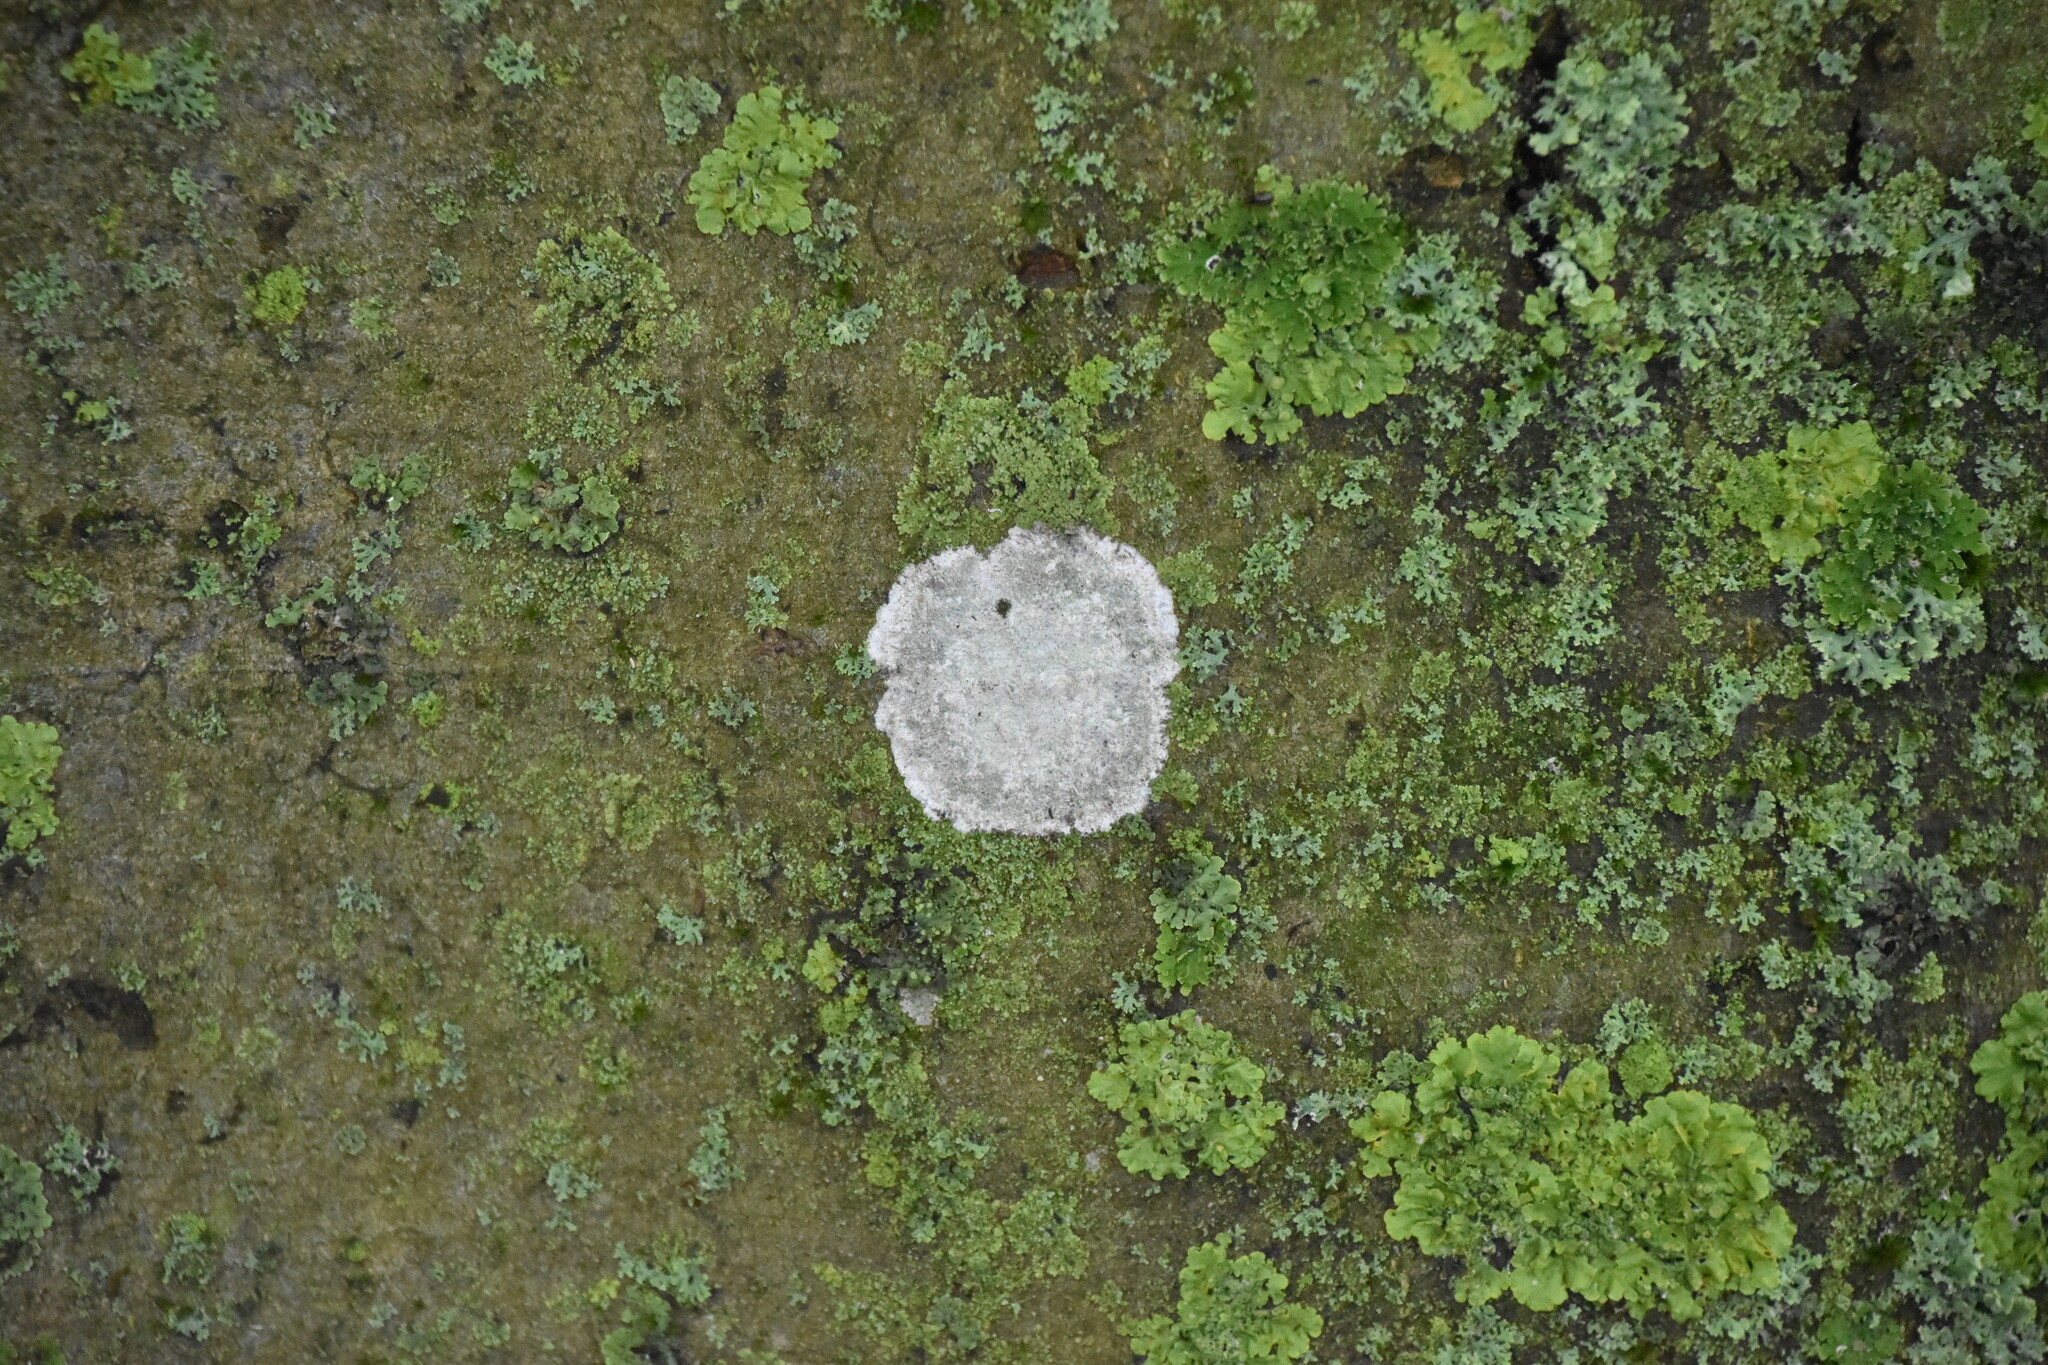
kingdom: Fungi
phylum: Ascomycota
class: Lecanoromycetes
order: Ostropales
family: Phlyctidaceae
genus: Phlyctis
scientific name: Phlyctis argena
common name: Whitewash lichen
